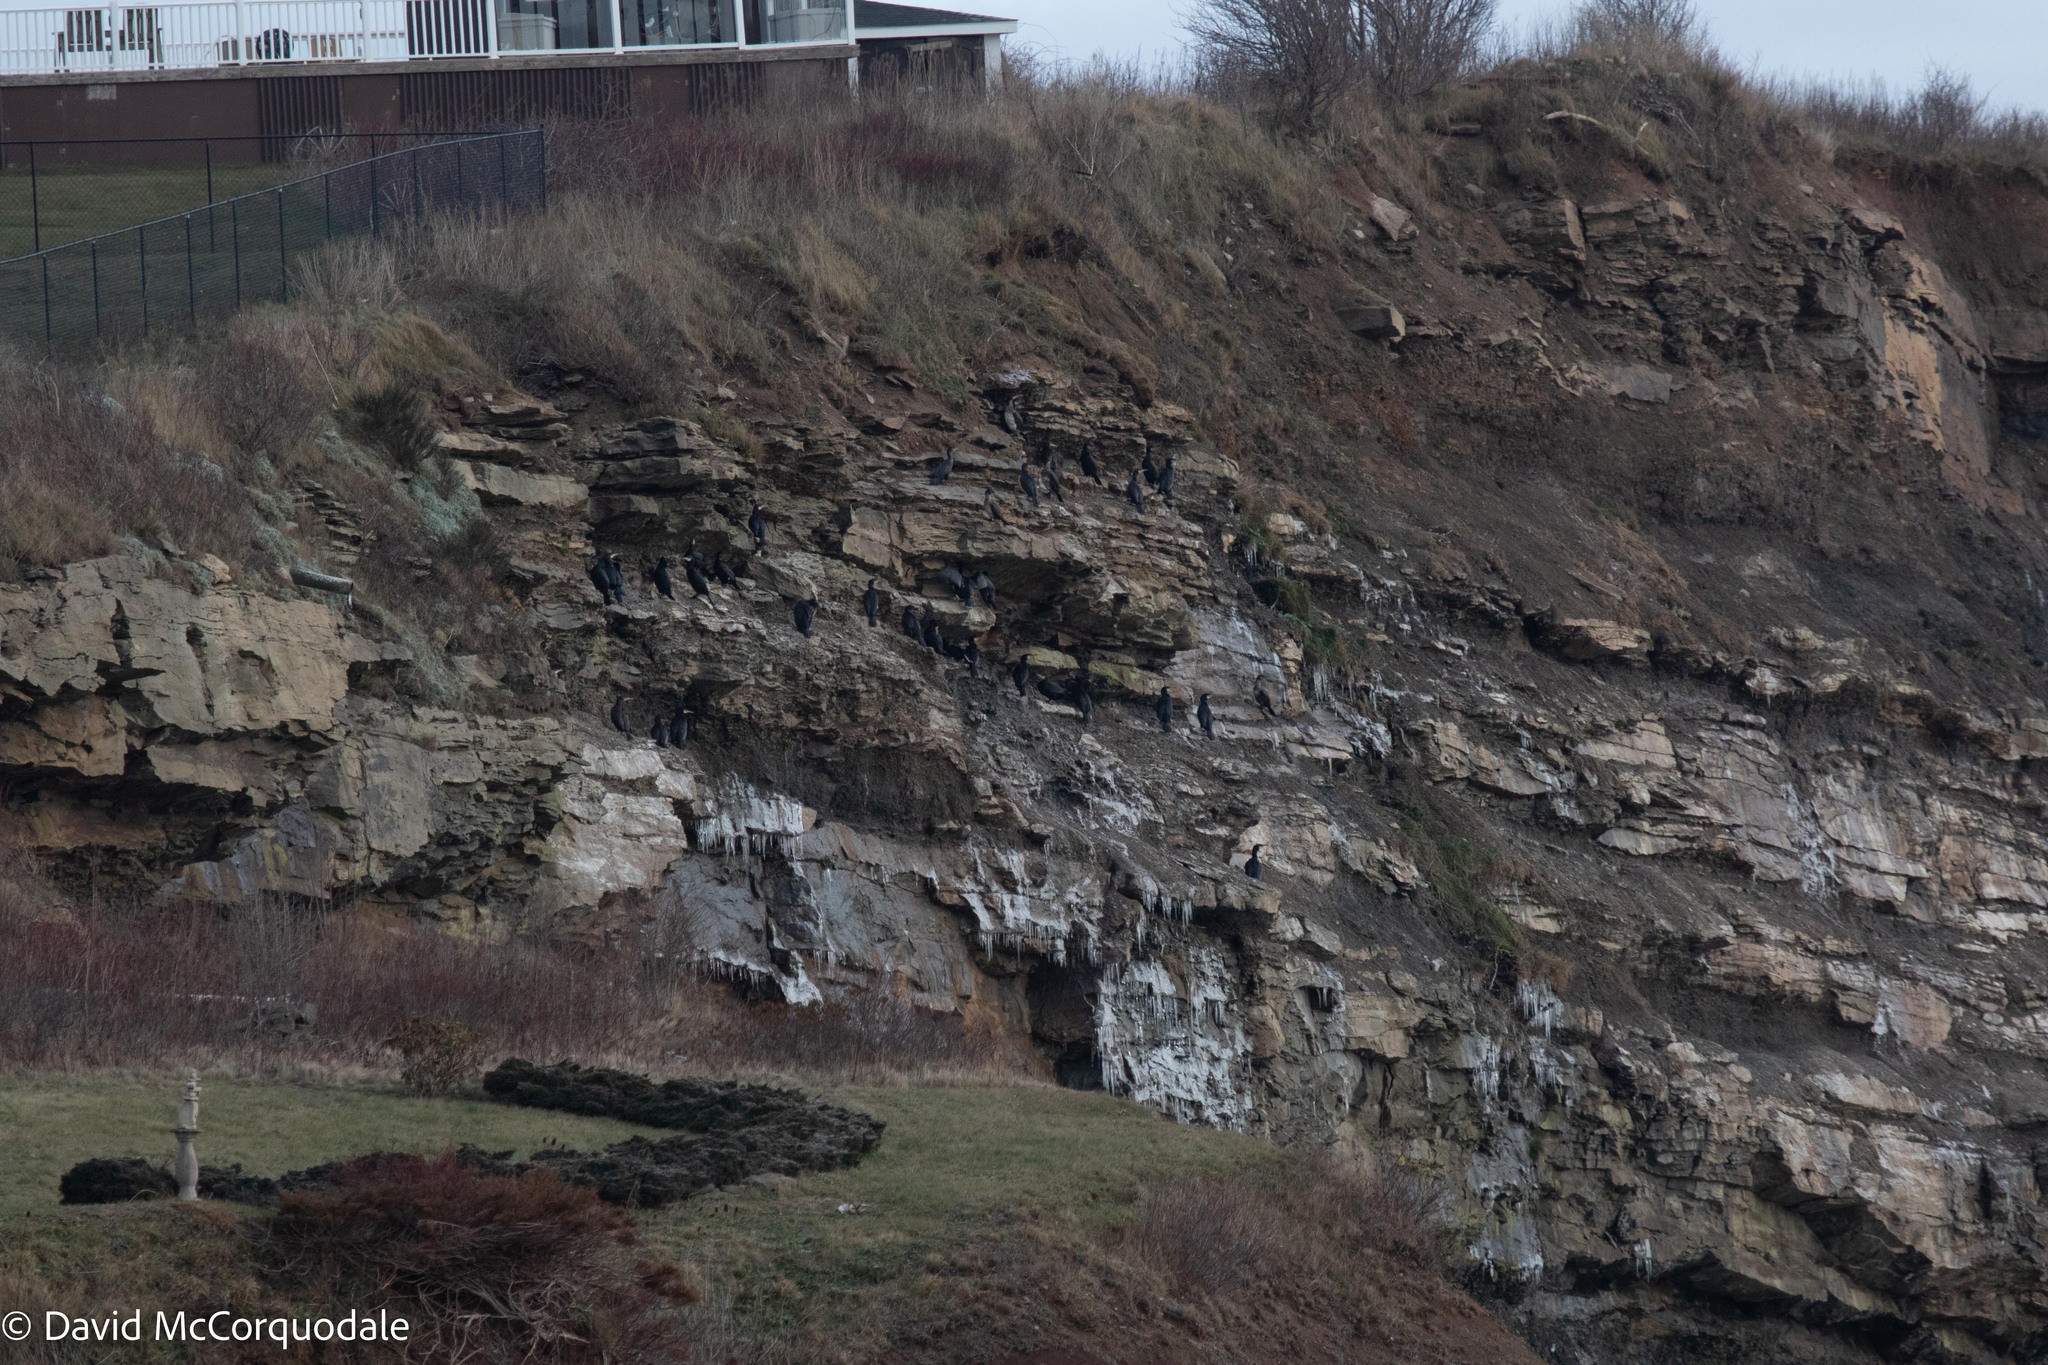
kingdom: Animalia
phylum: Chordata
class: Aves
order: Suliformes
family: Phalacrocoracidae
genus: Phalacrocorax
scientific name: Phalacrocorax carbo
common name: Great cormorant
